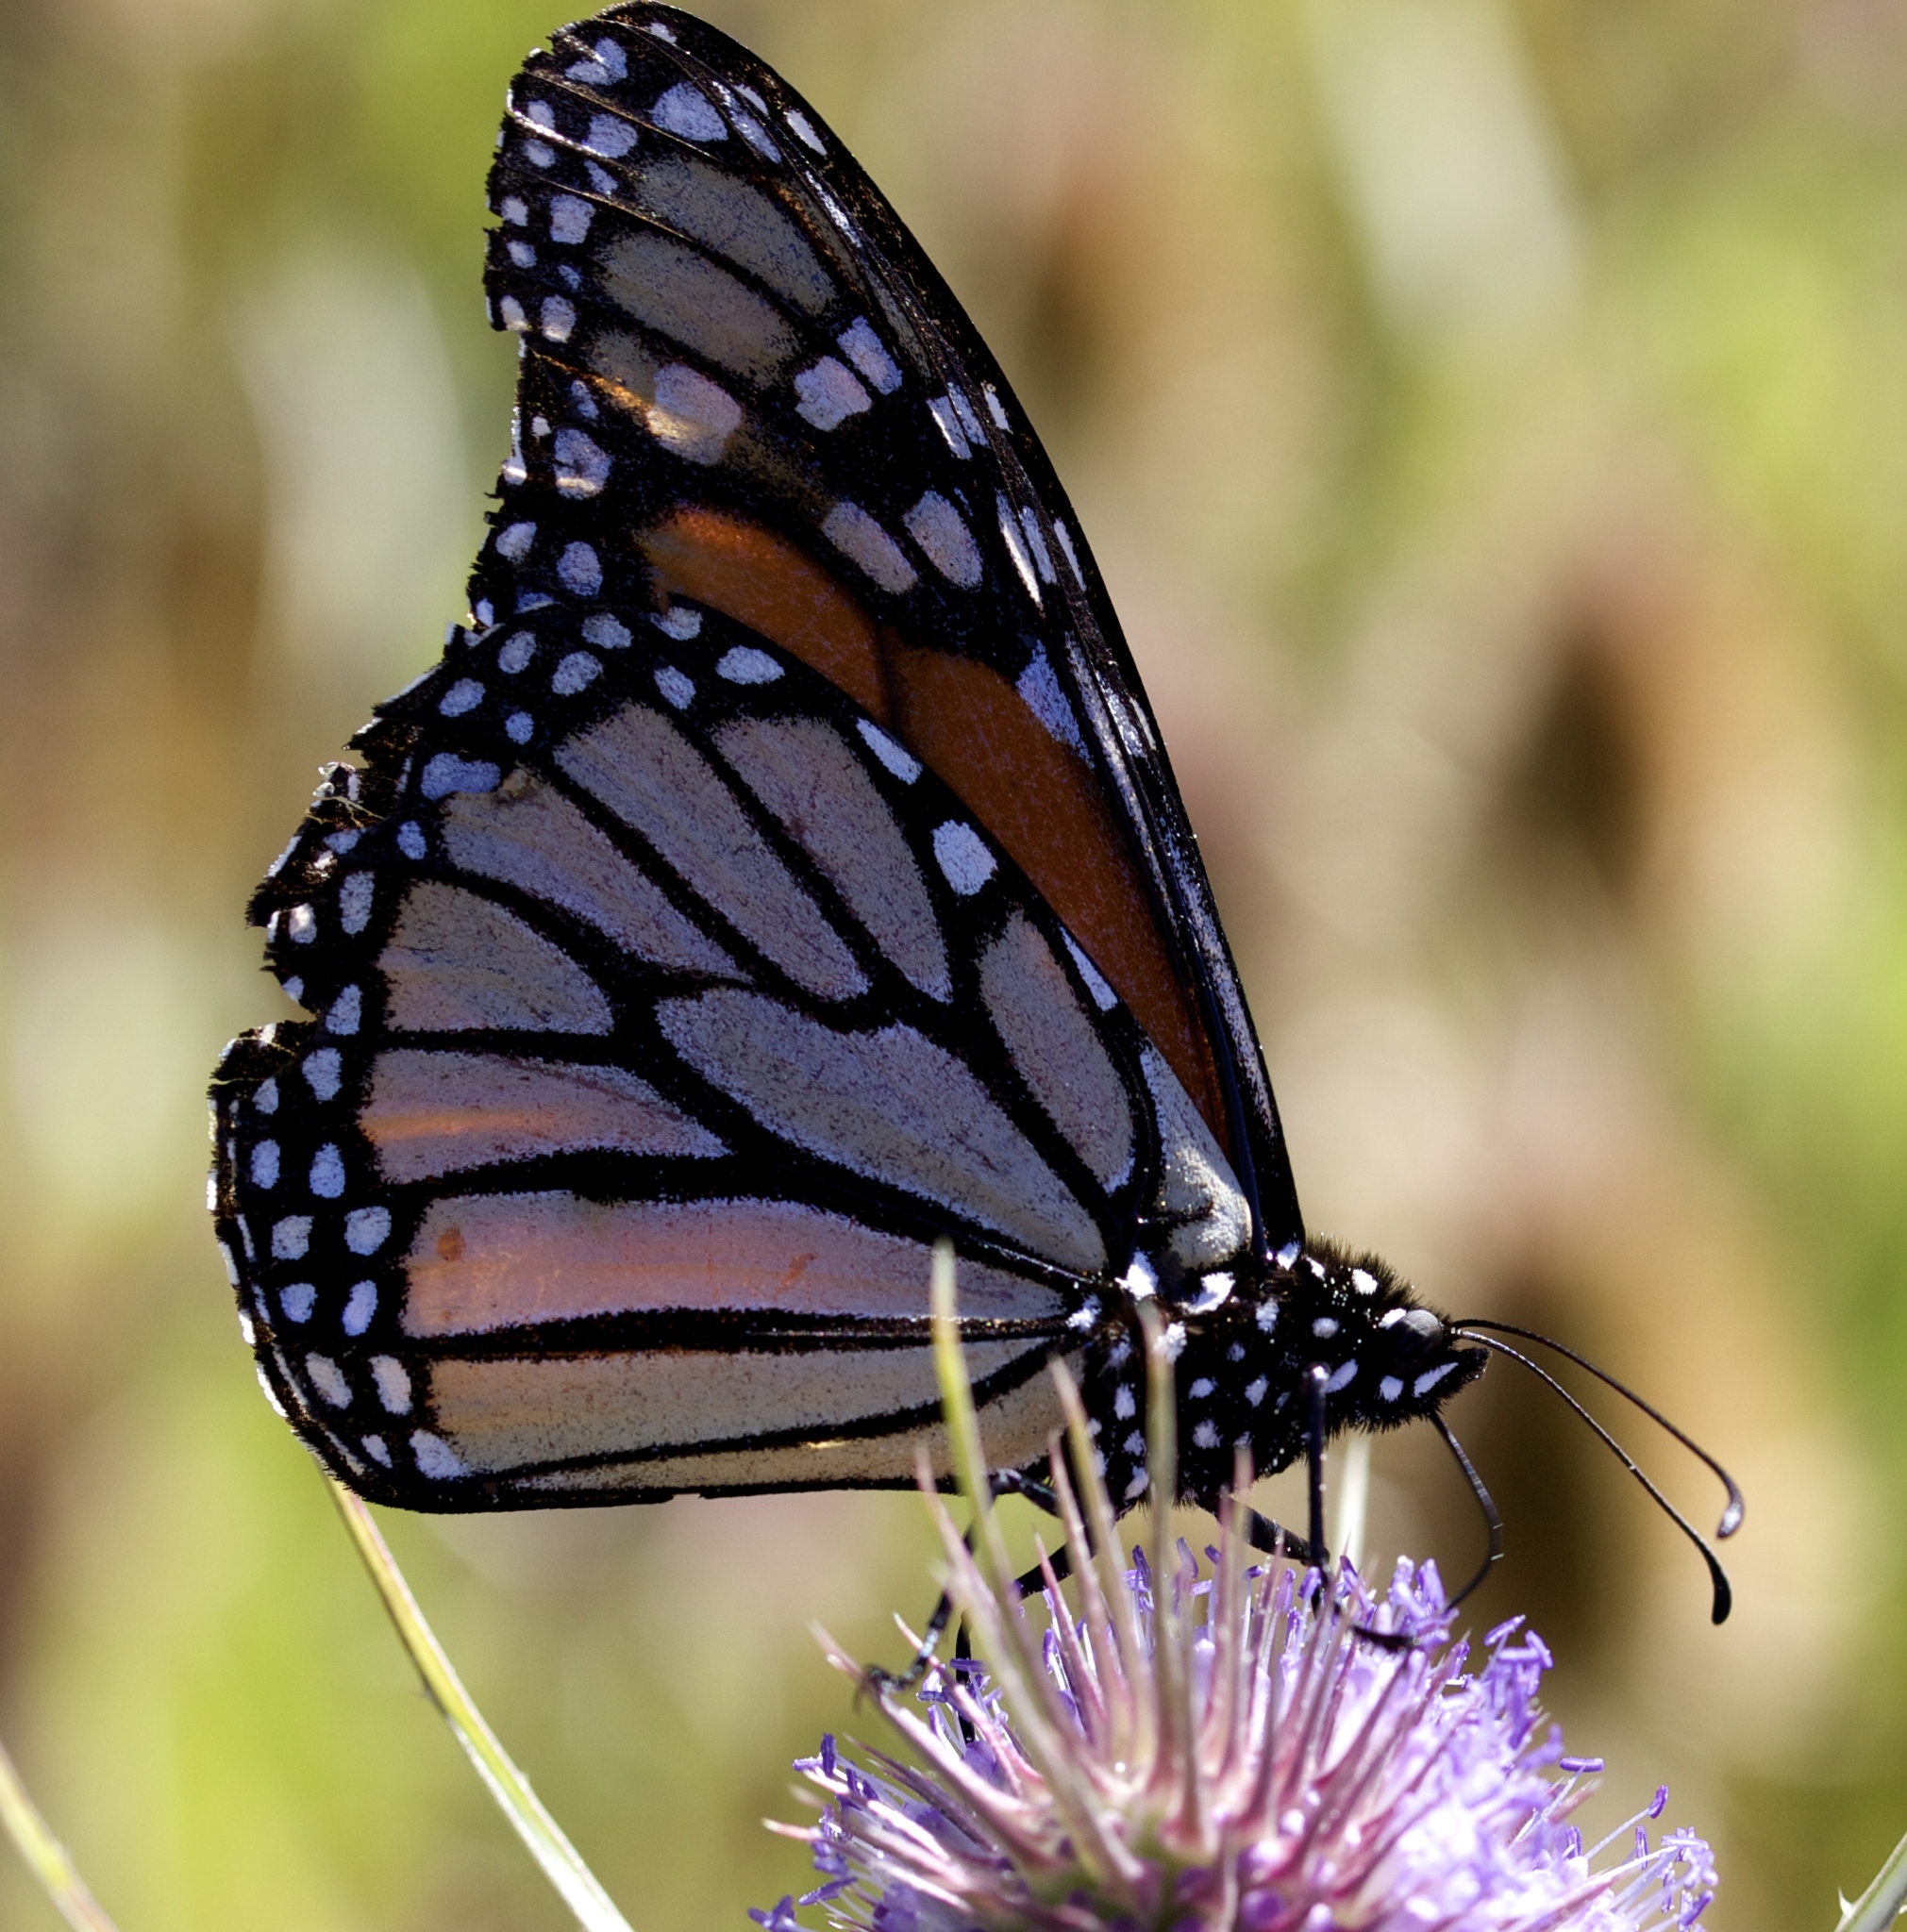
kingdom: Animalia
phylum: Arthropoda
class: Insecta
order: Lepidoptera
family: Nymphalidae
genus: Danaus
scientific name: Danaus plexippus
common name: Monarch
